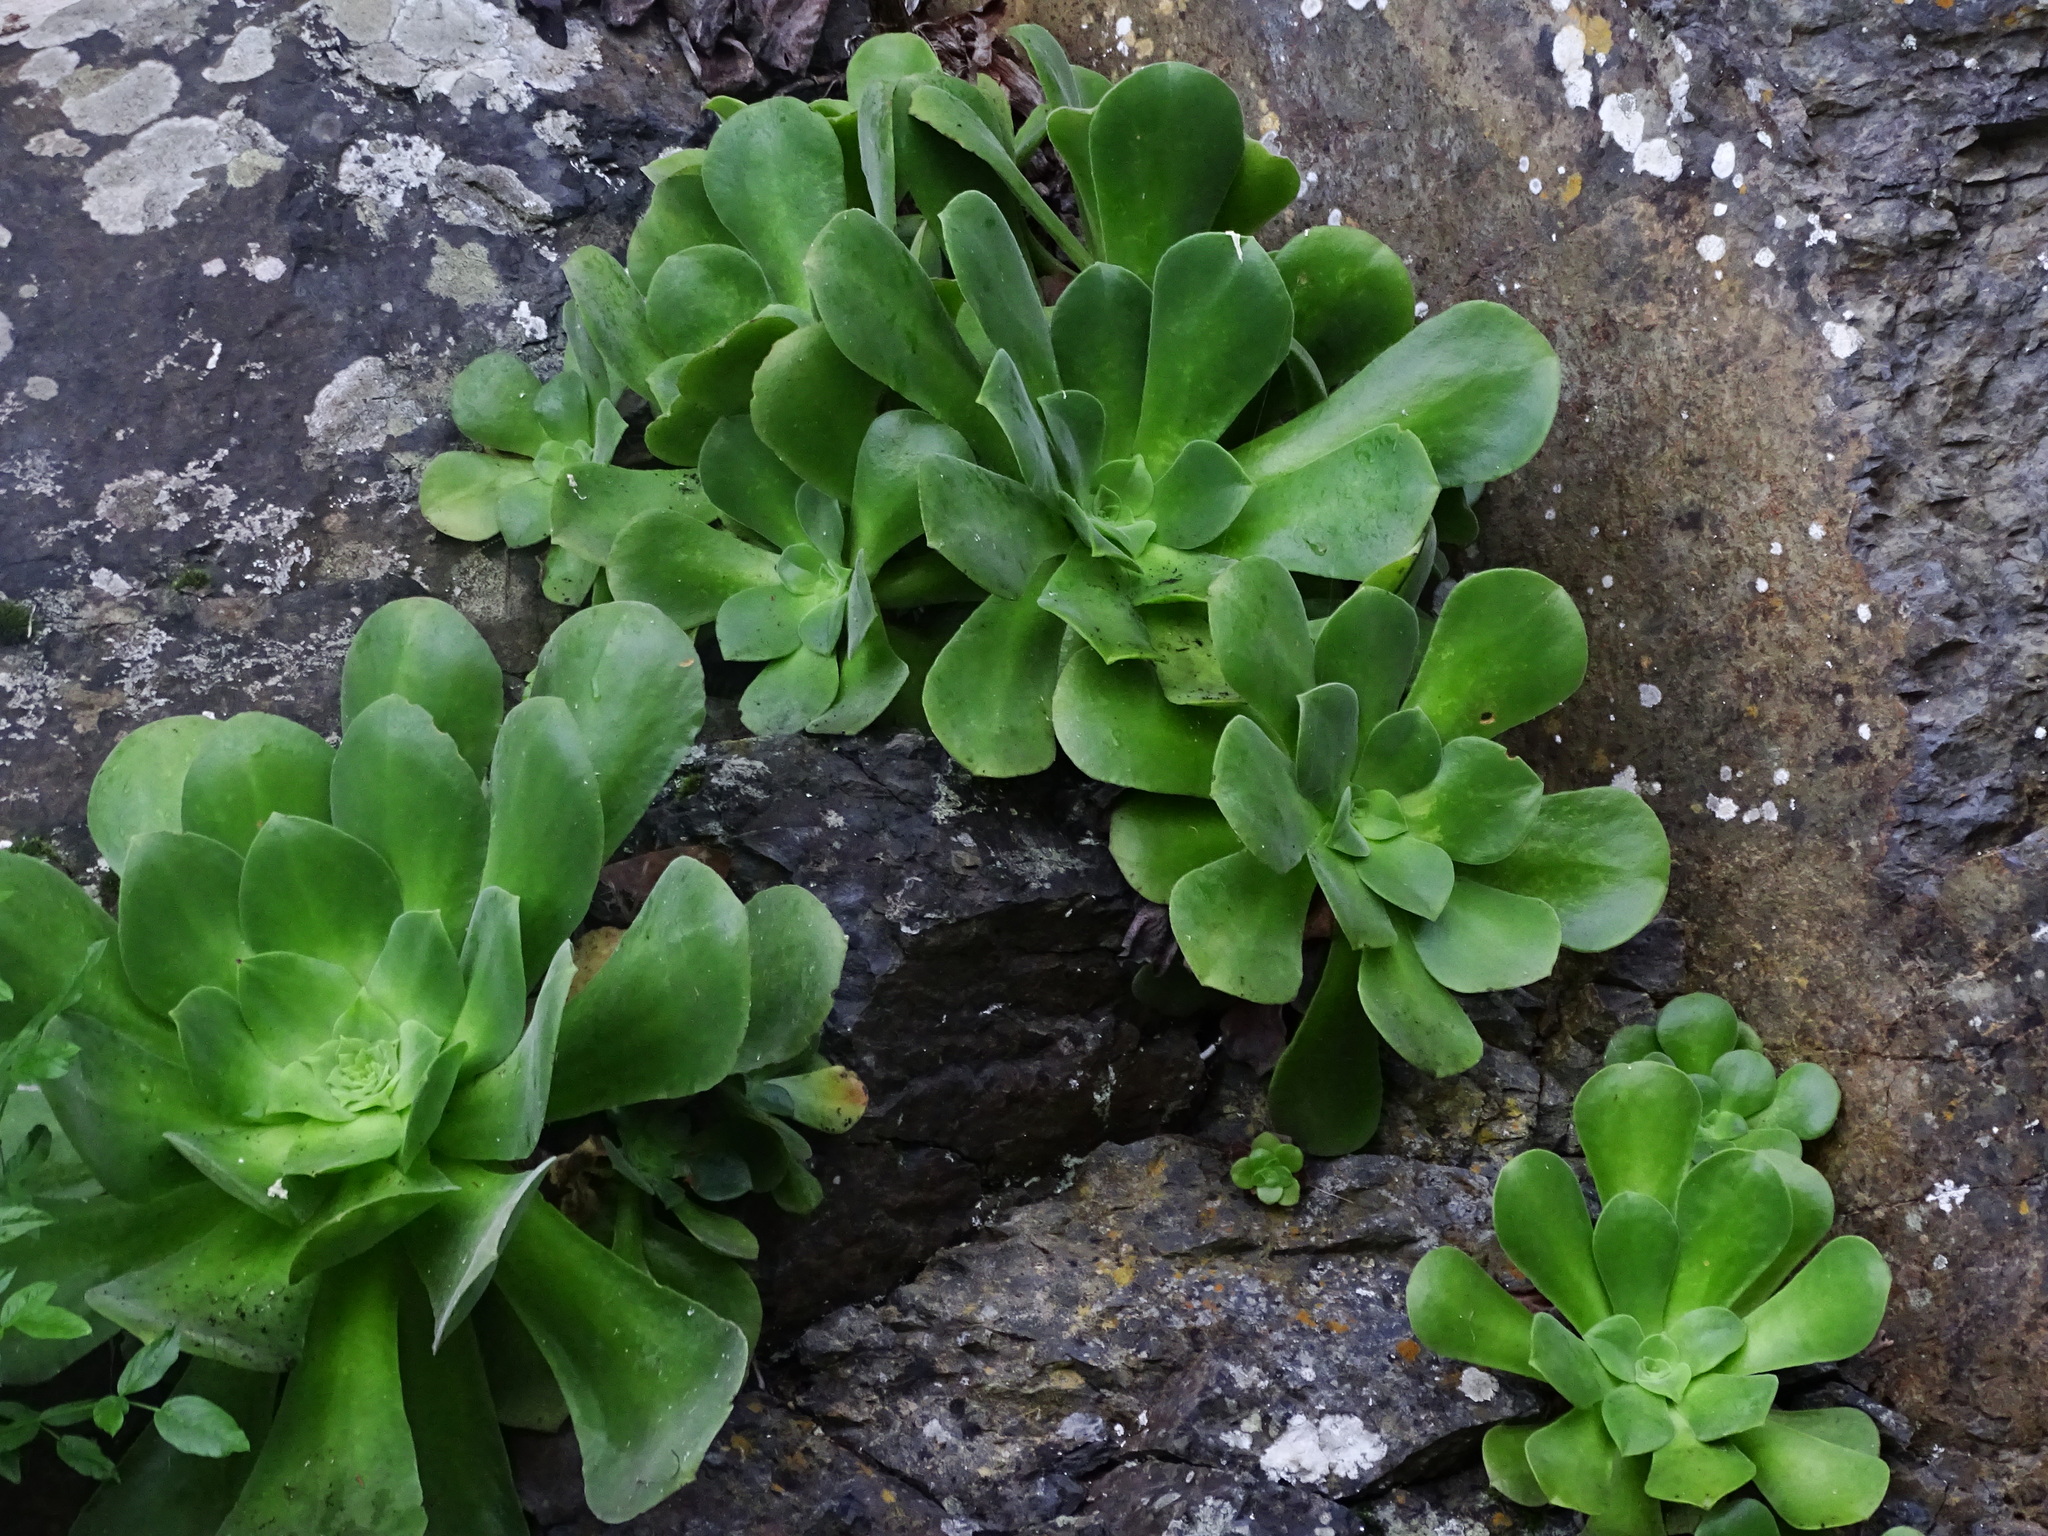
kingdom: Plantae
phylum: Tracheophyta
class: Magnoliopsida
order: Saxifragales
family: Crassulaceae
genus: Aeonium
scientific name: Aeonium canariense
